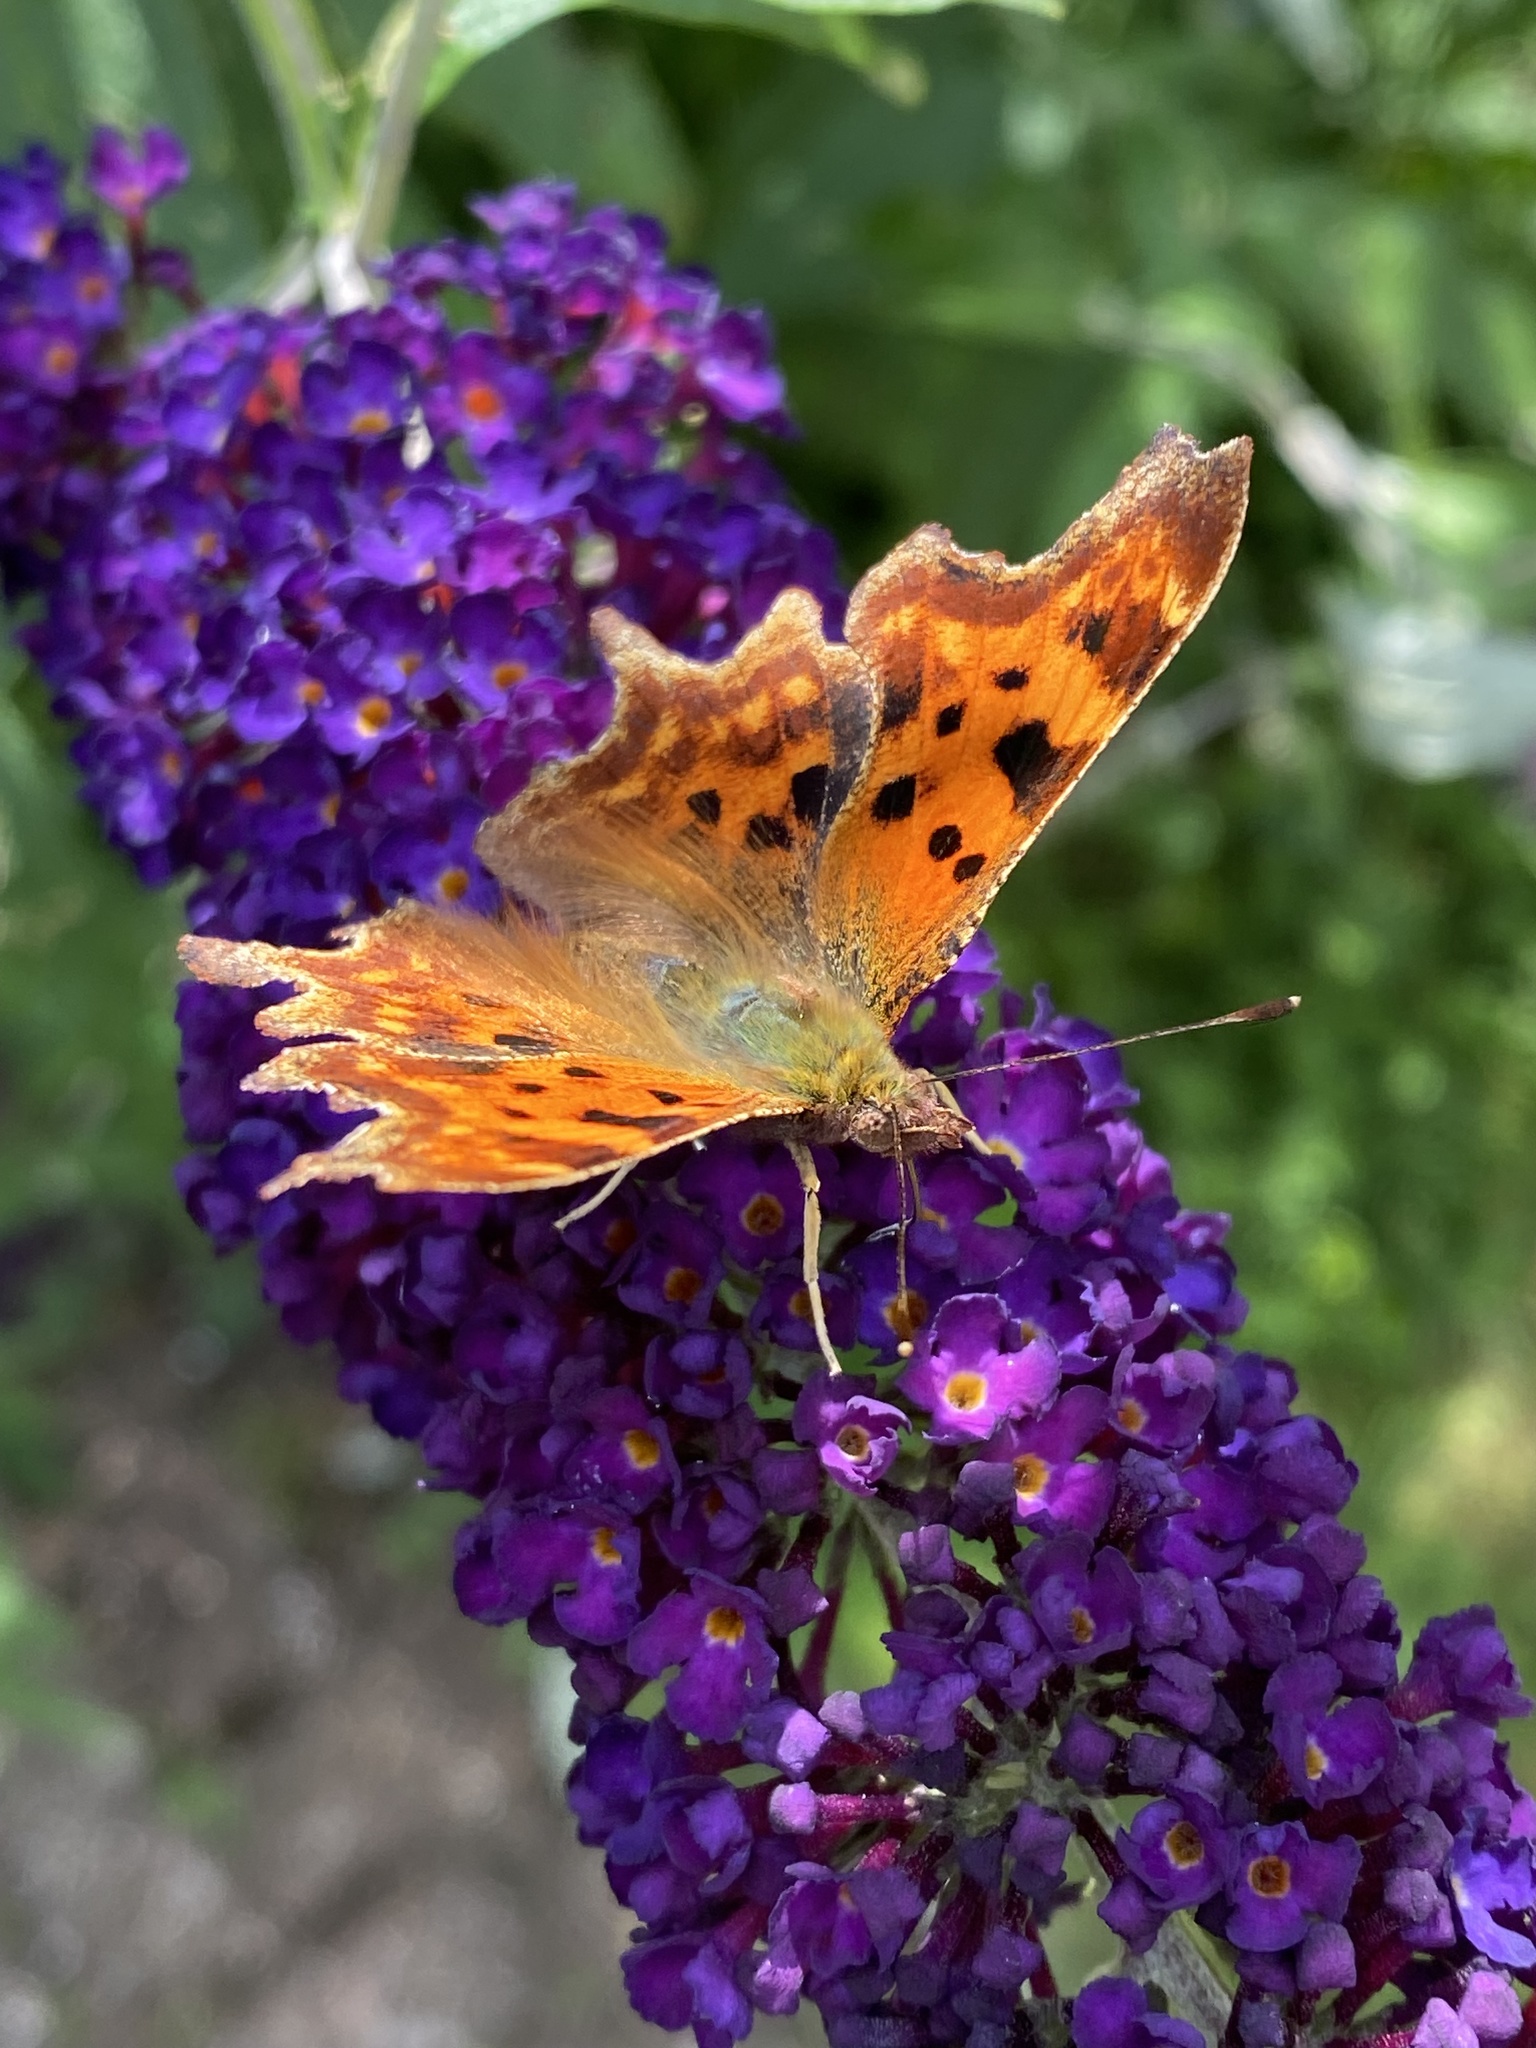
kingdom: Animalia
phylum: Arthropoda
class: Insecta
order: Lepidoptera
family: Nymphalidae
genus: Polygonia
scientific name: Polygonia c-album
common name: Comma
